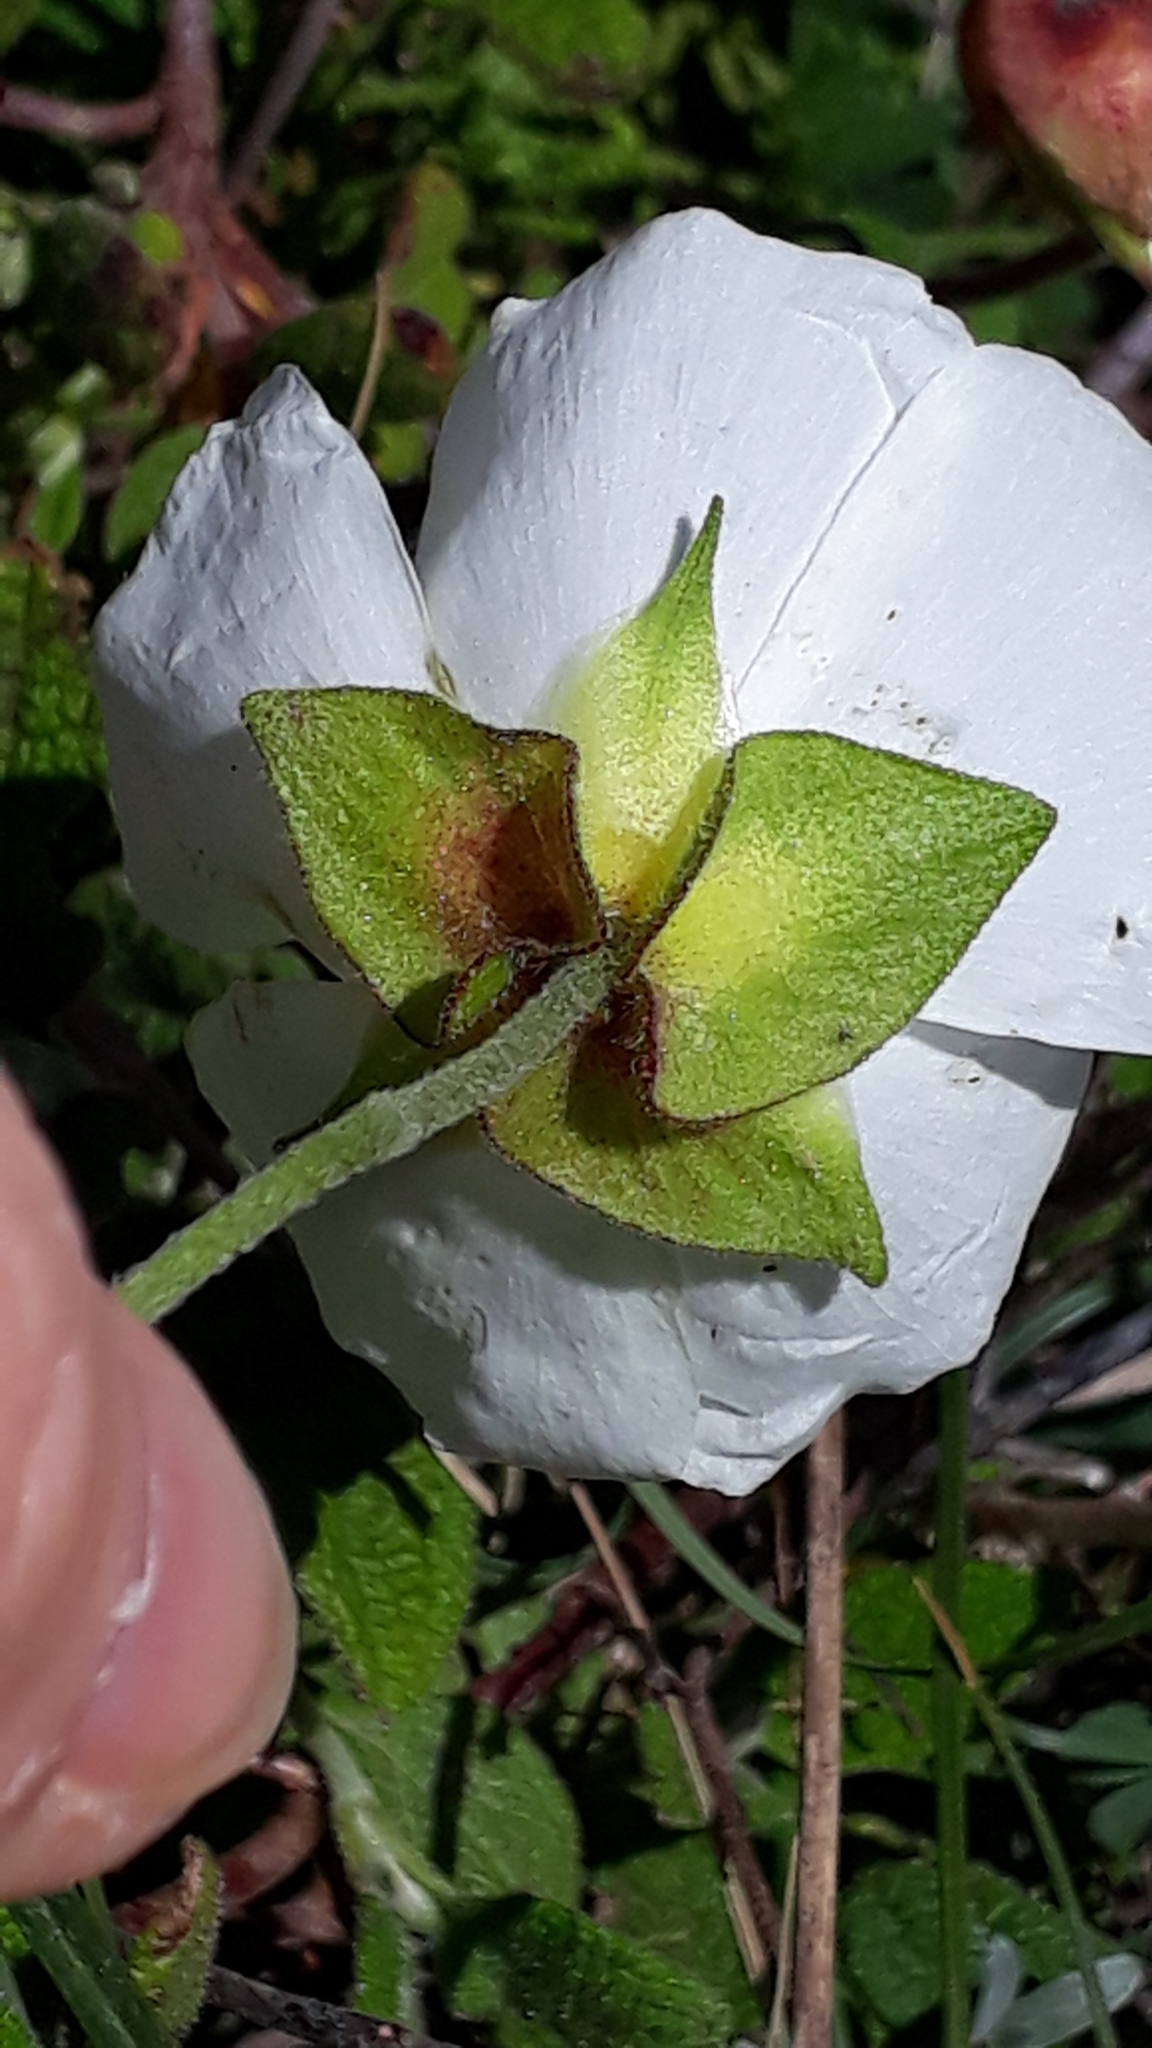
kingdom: Plantae
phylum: Tracheophyta
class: Magnoliopsida
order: Malvales
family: Cistaceae
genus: Cistus
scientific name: Cistus salviifolius
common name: Salvia cistus
